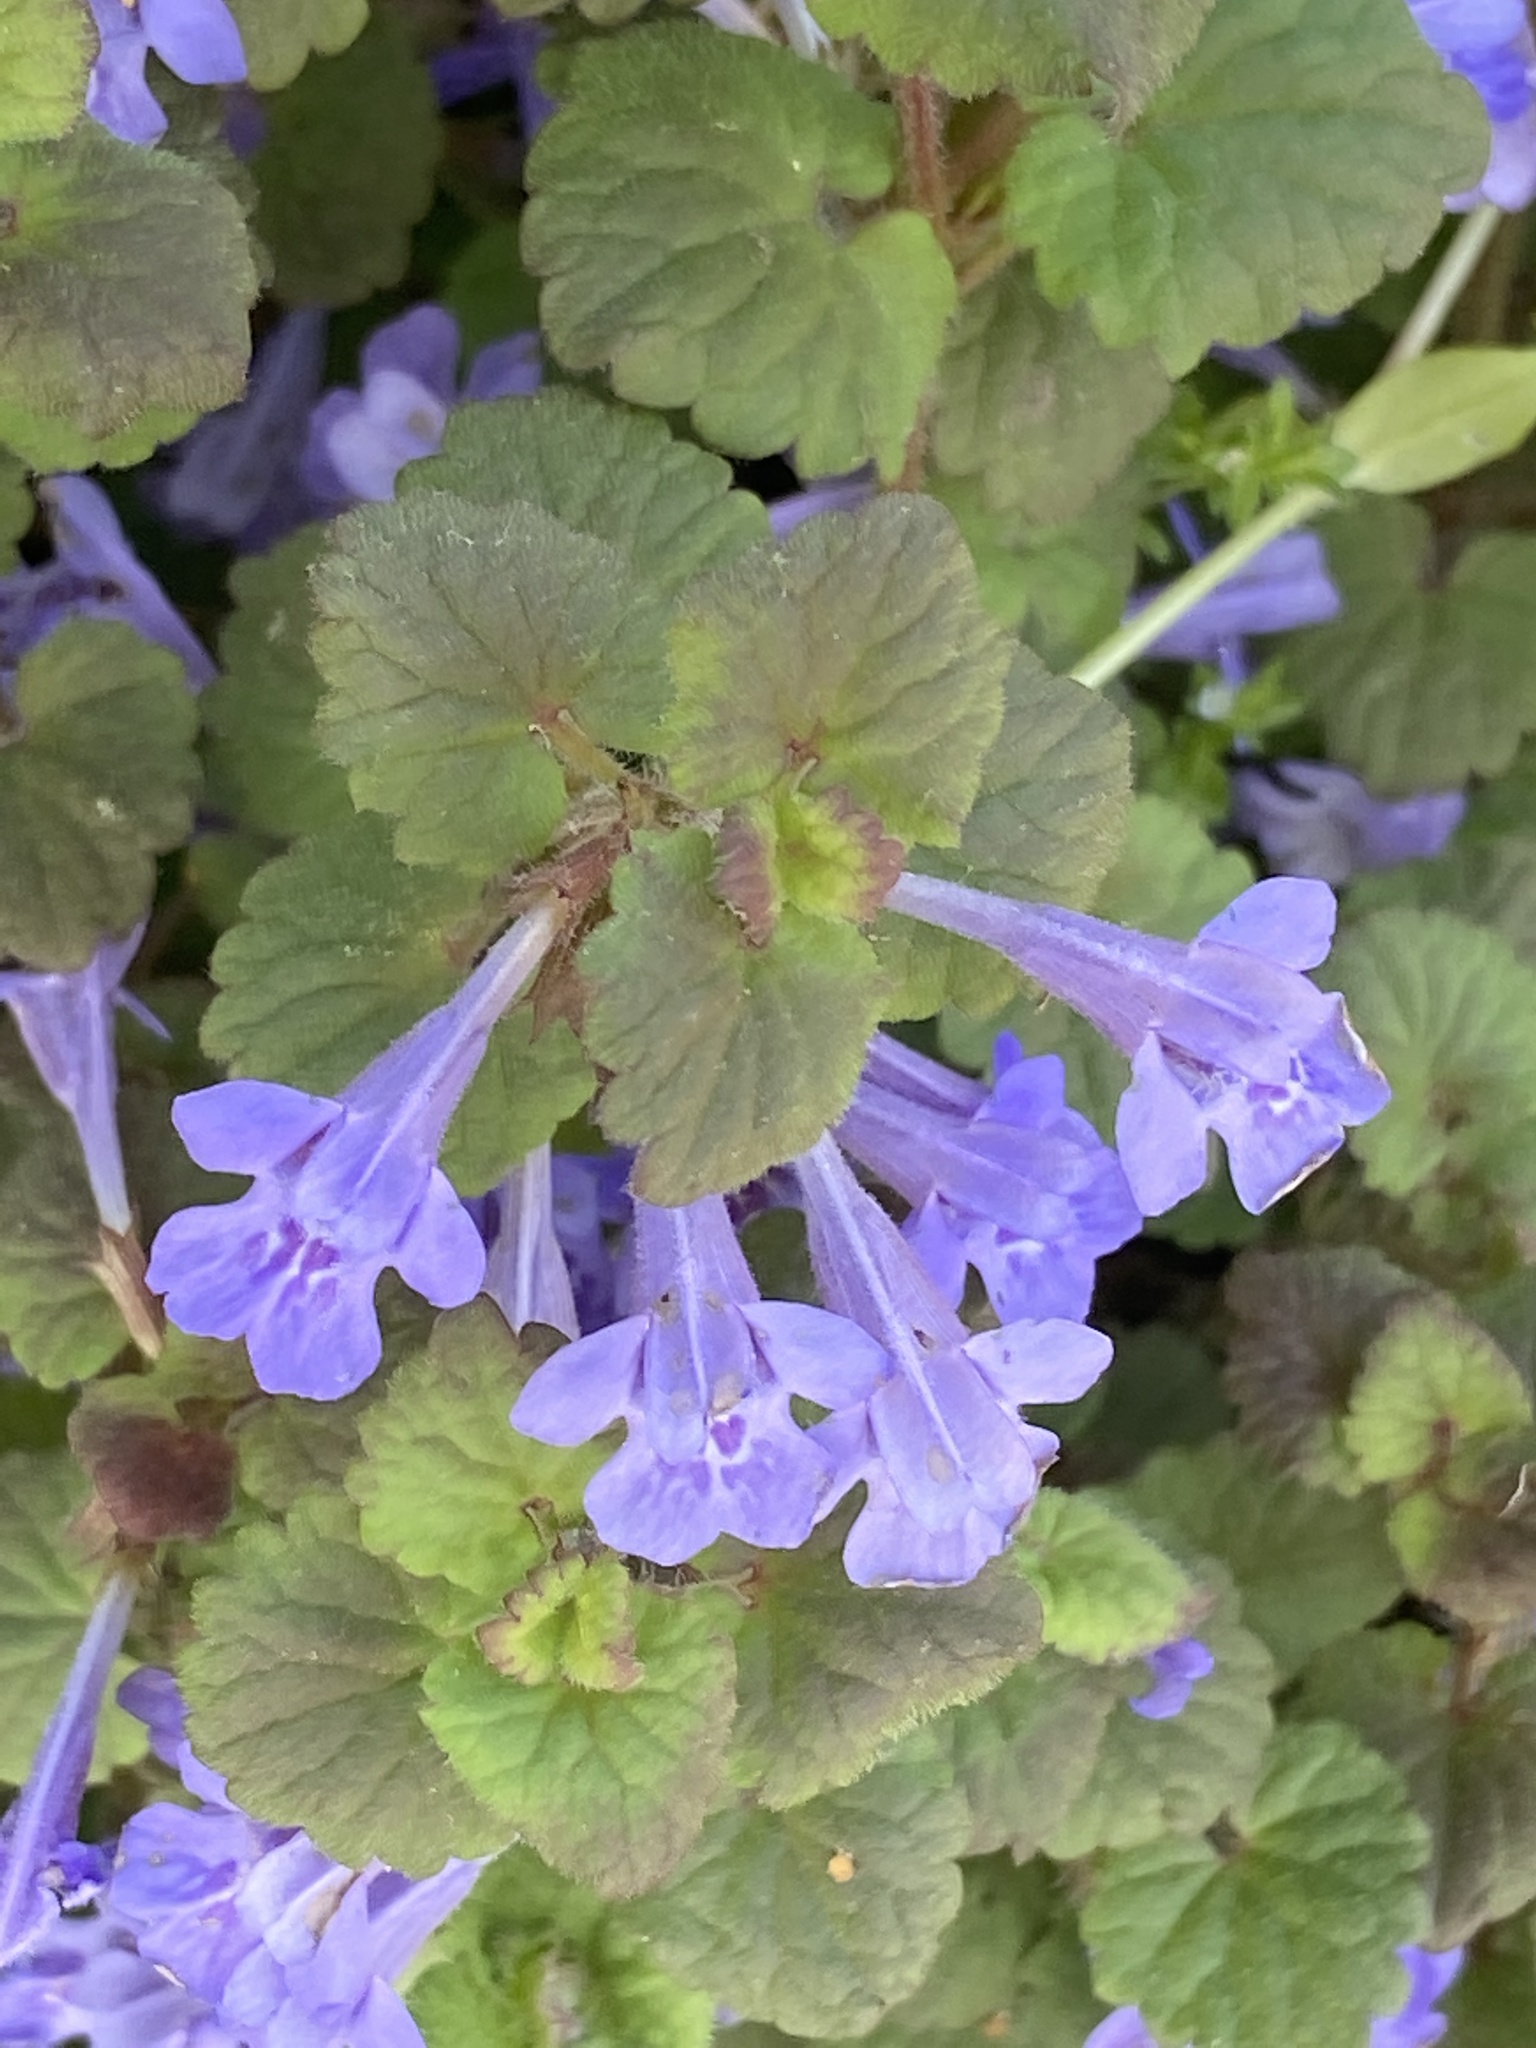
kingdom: Plantae
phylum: Tracheophyta
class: Magnoliopsida
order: Lamiales
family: Lamiaceae
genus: Glechoma
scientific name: Glechoma hederacea
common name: Ground ivy
